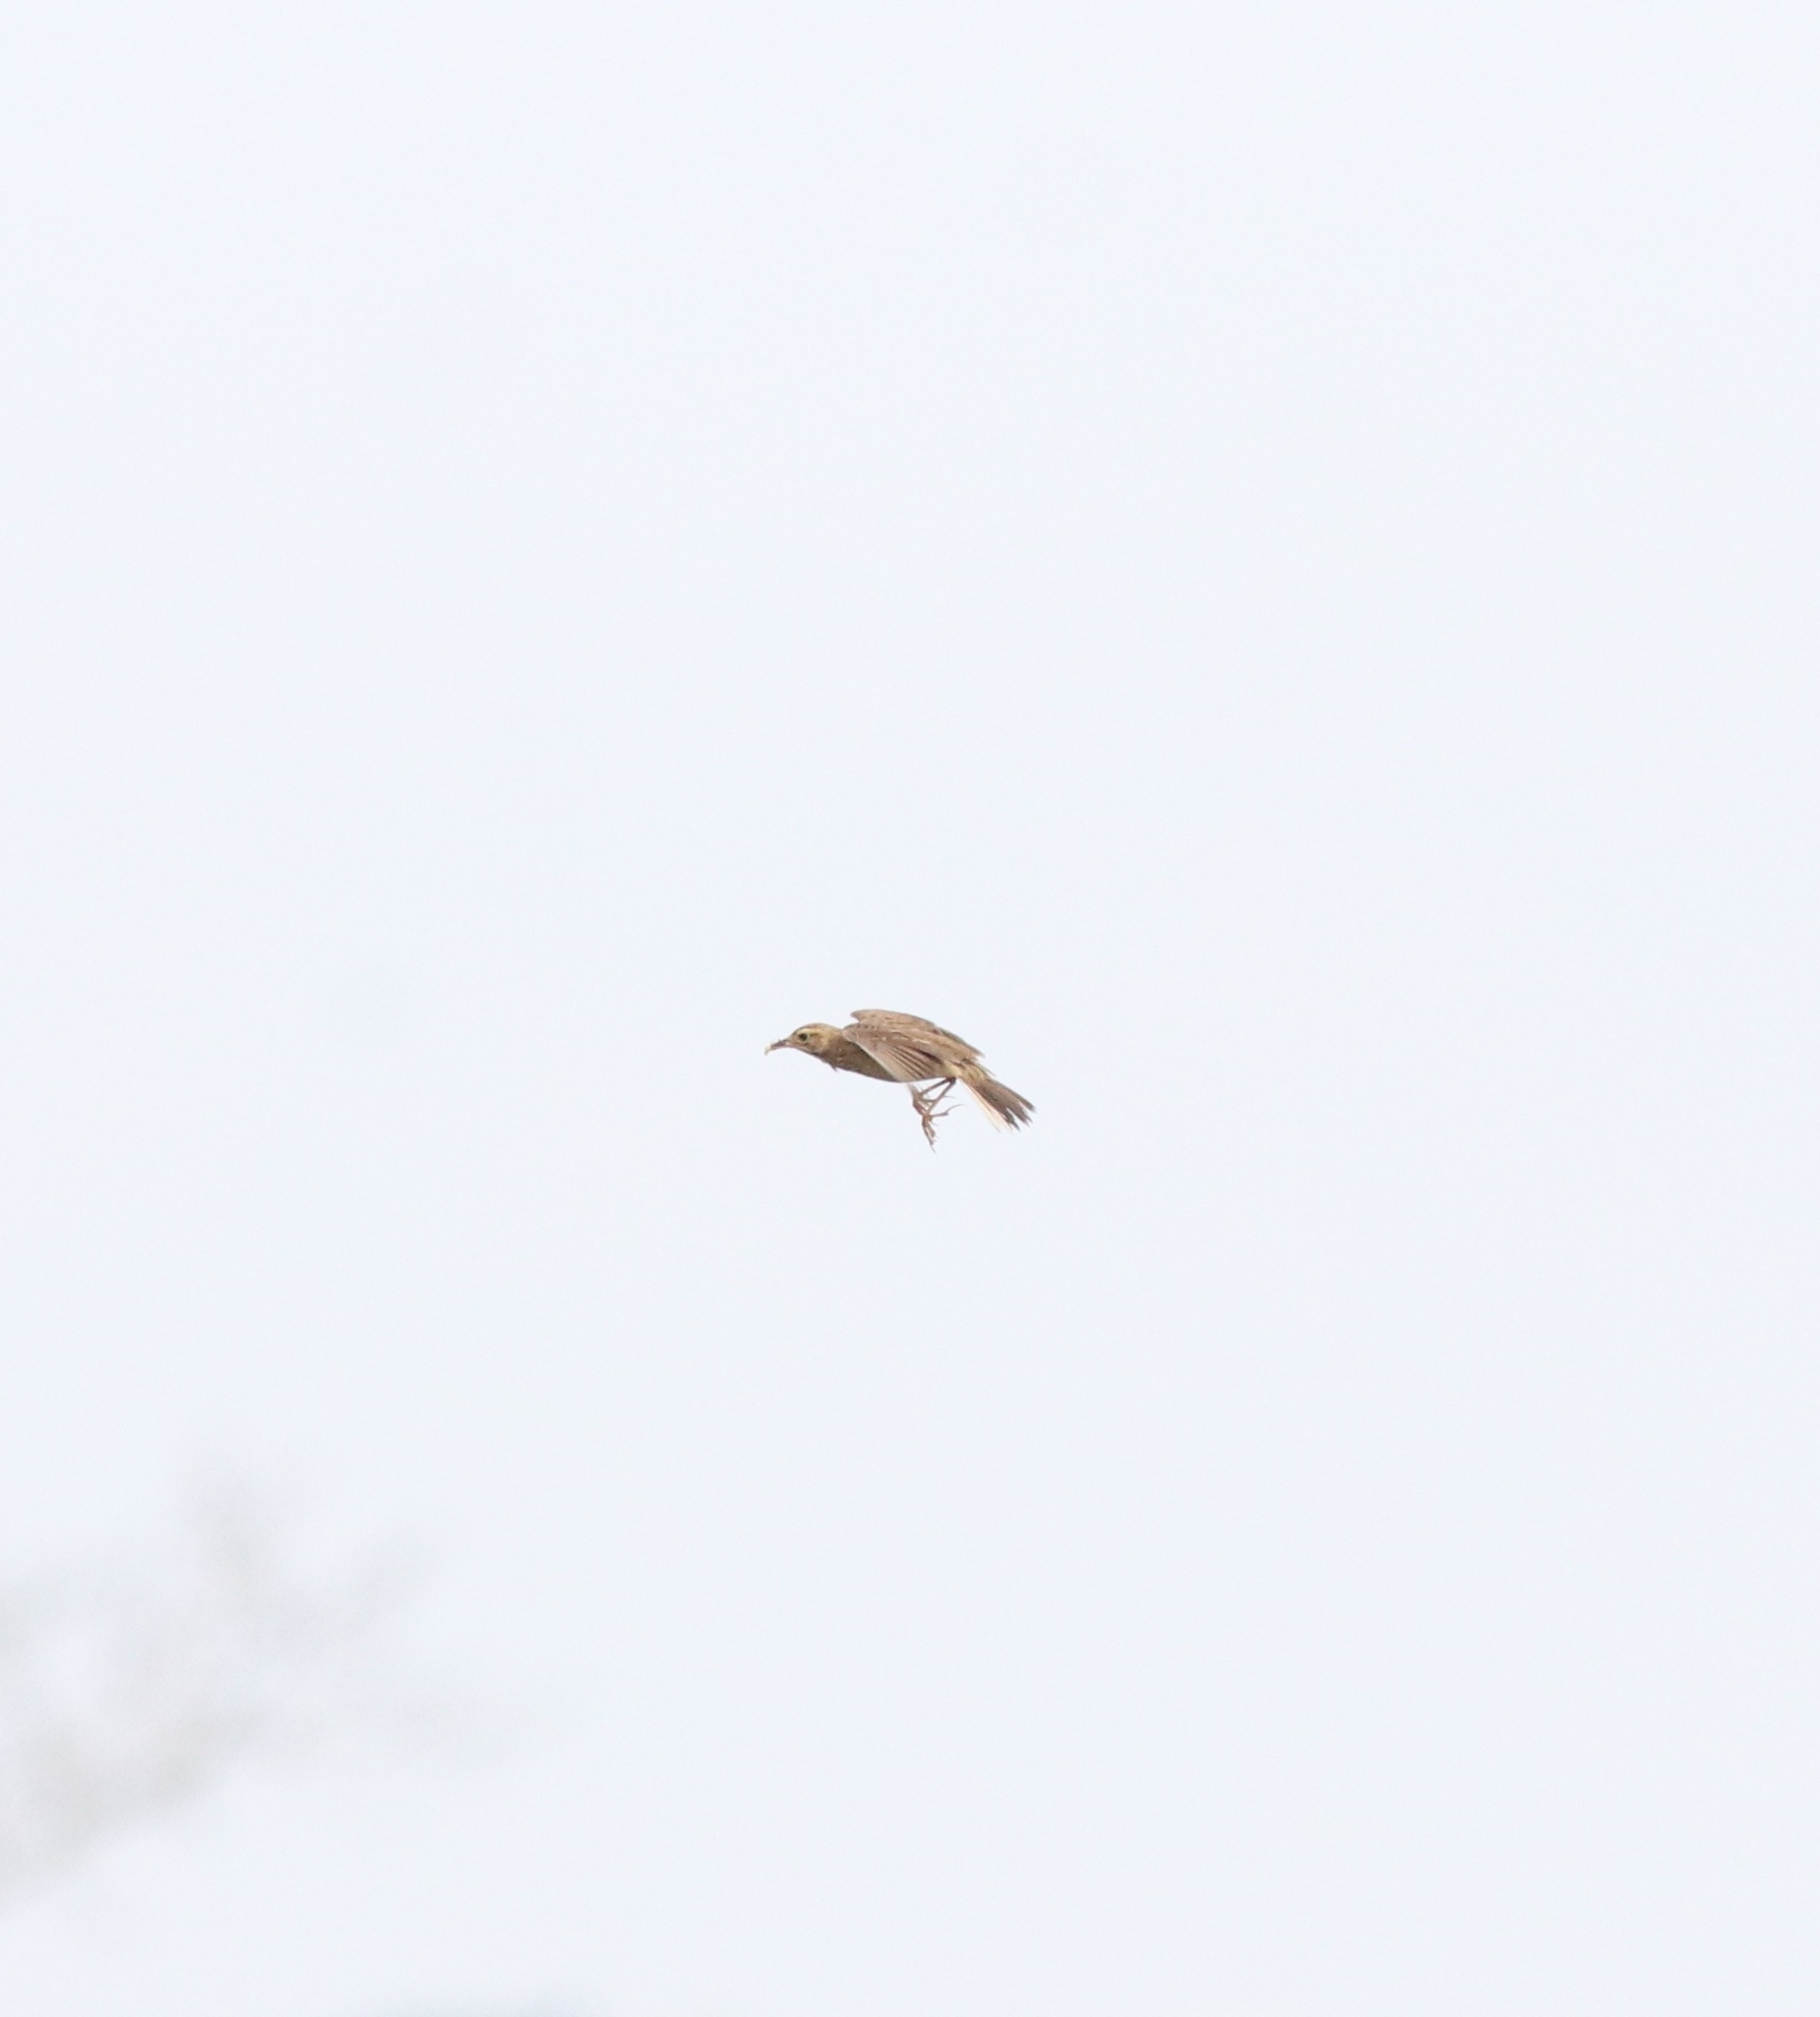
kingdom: Animalia
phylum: Chordata
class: Aves
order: Passeriformes
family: Motacillidae
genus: Anthus
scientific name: Anthus rufulus
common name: Paddyfield pipit
